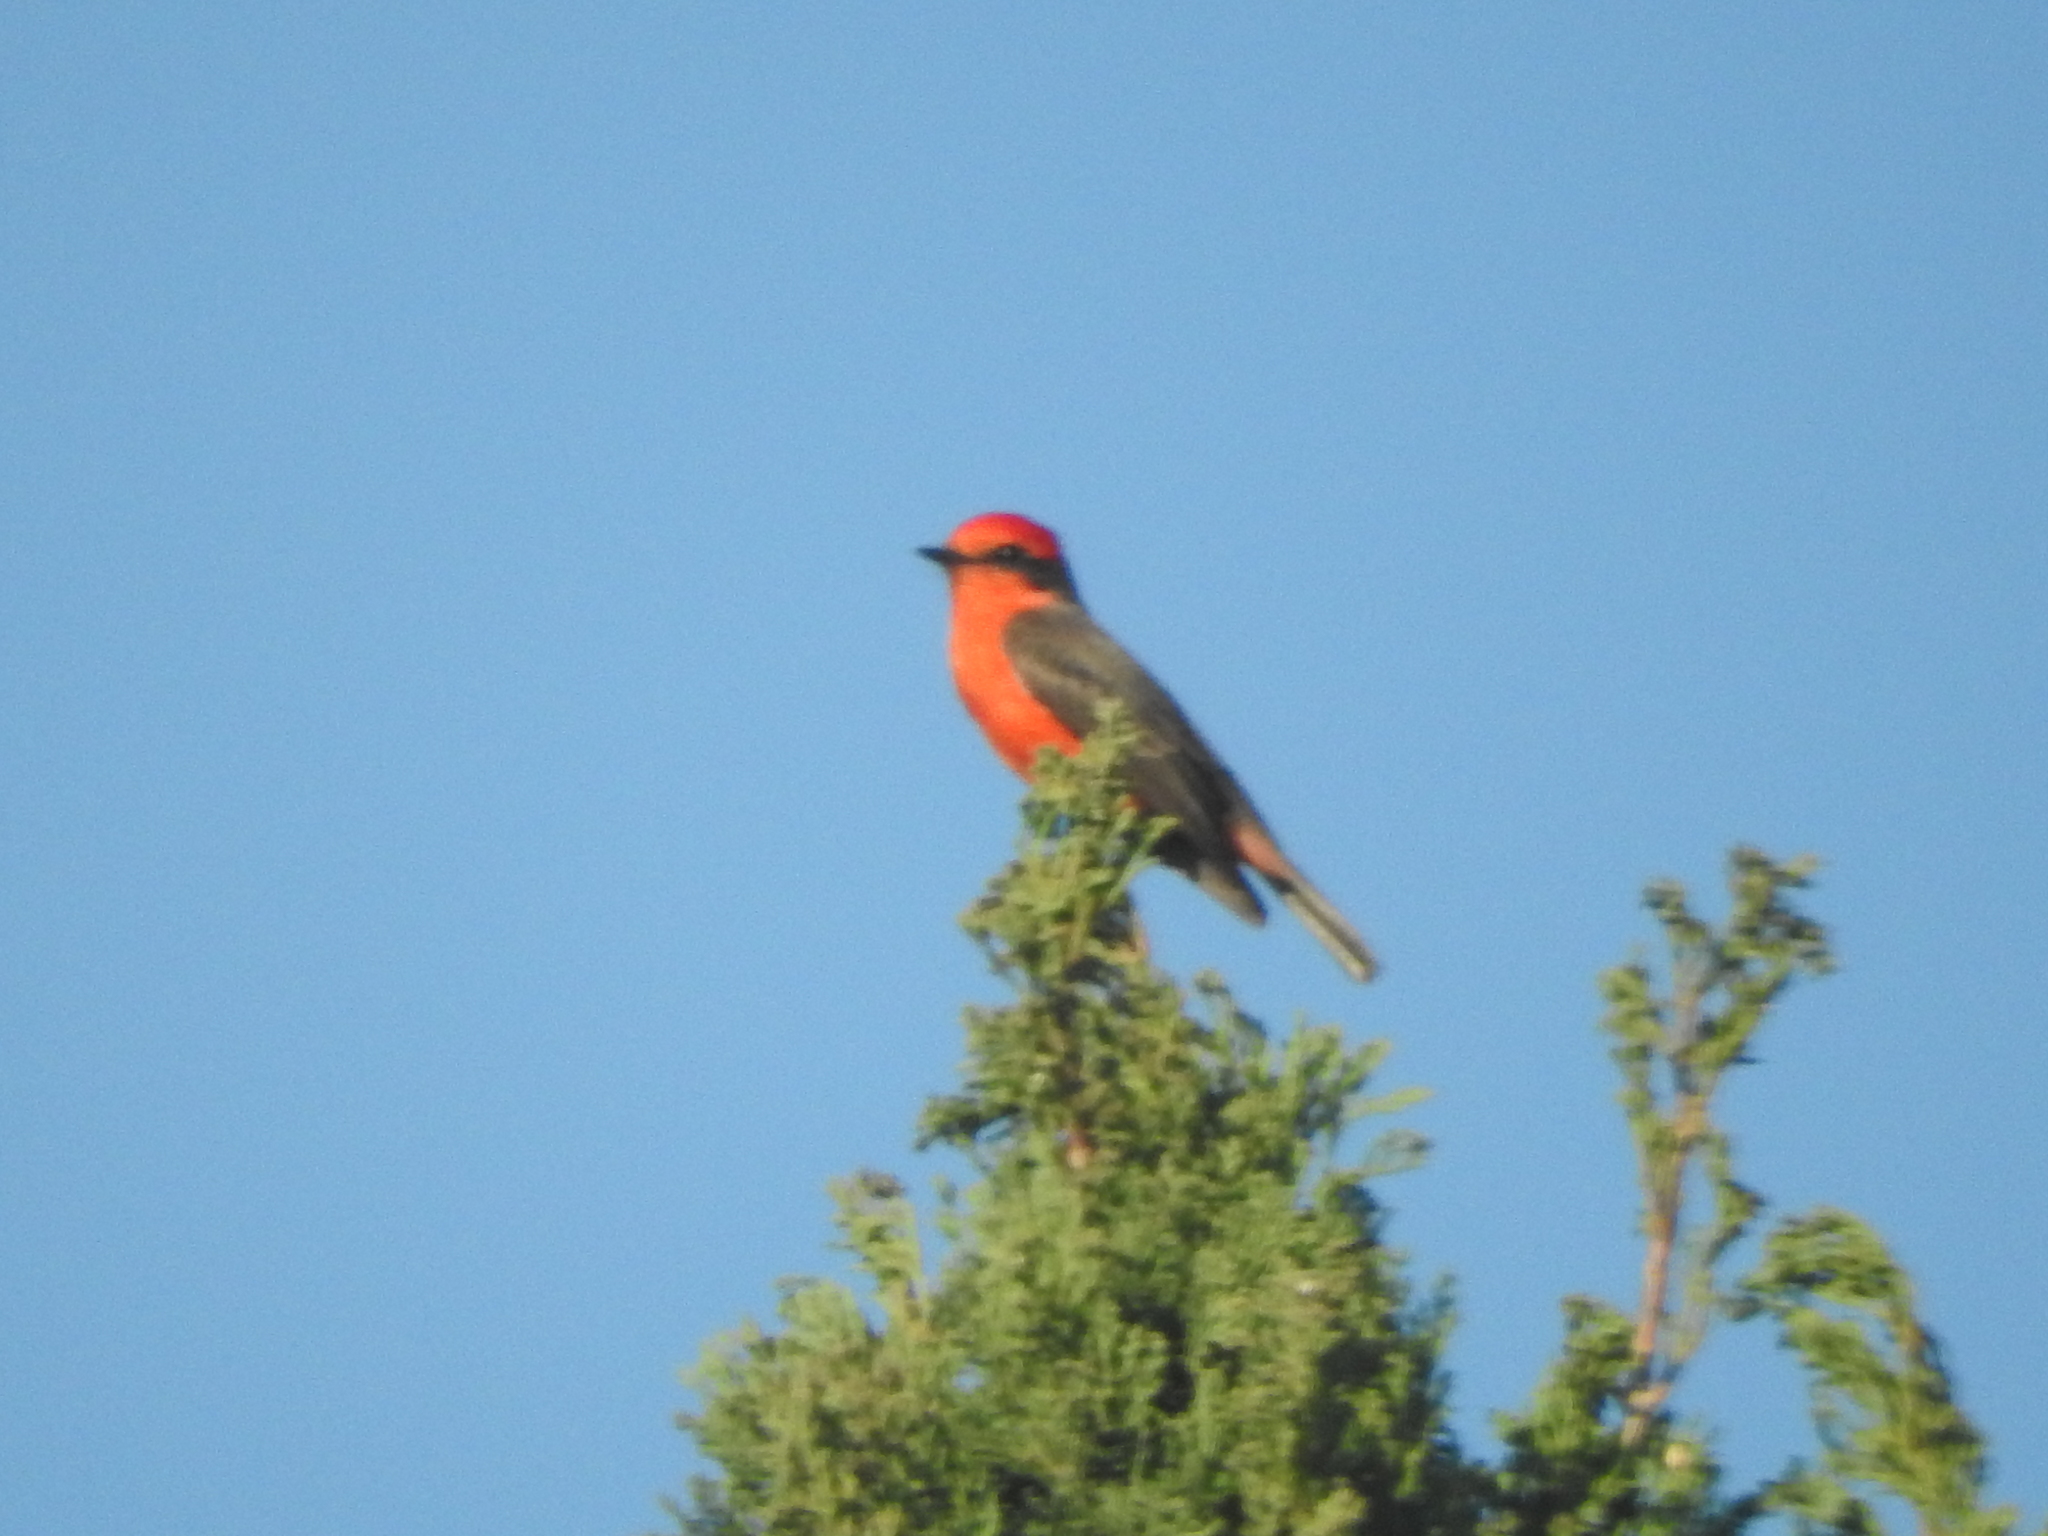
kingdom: Animalia
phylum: Chordata
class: Aves
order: Passeriformes
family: Tyrannidae
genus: Pyrocephalus
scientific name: Pyrocephalus rubinus
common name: Vermilion flycatcher
